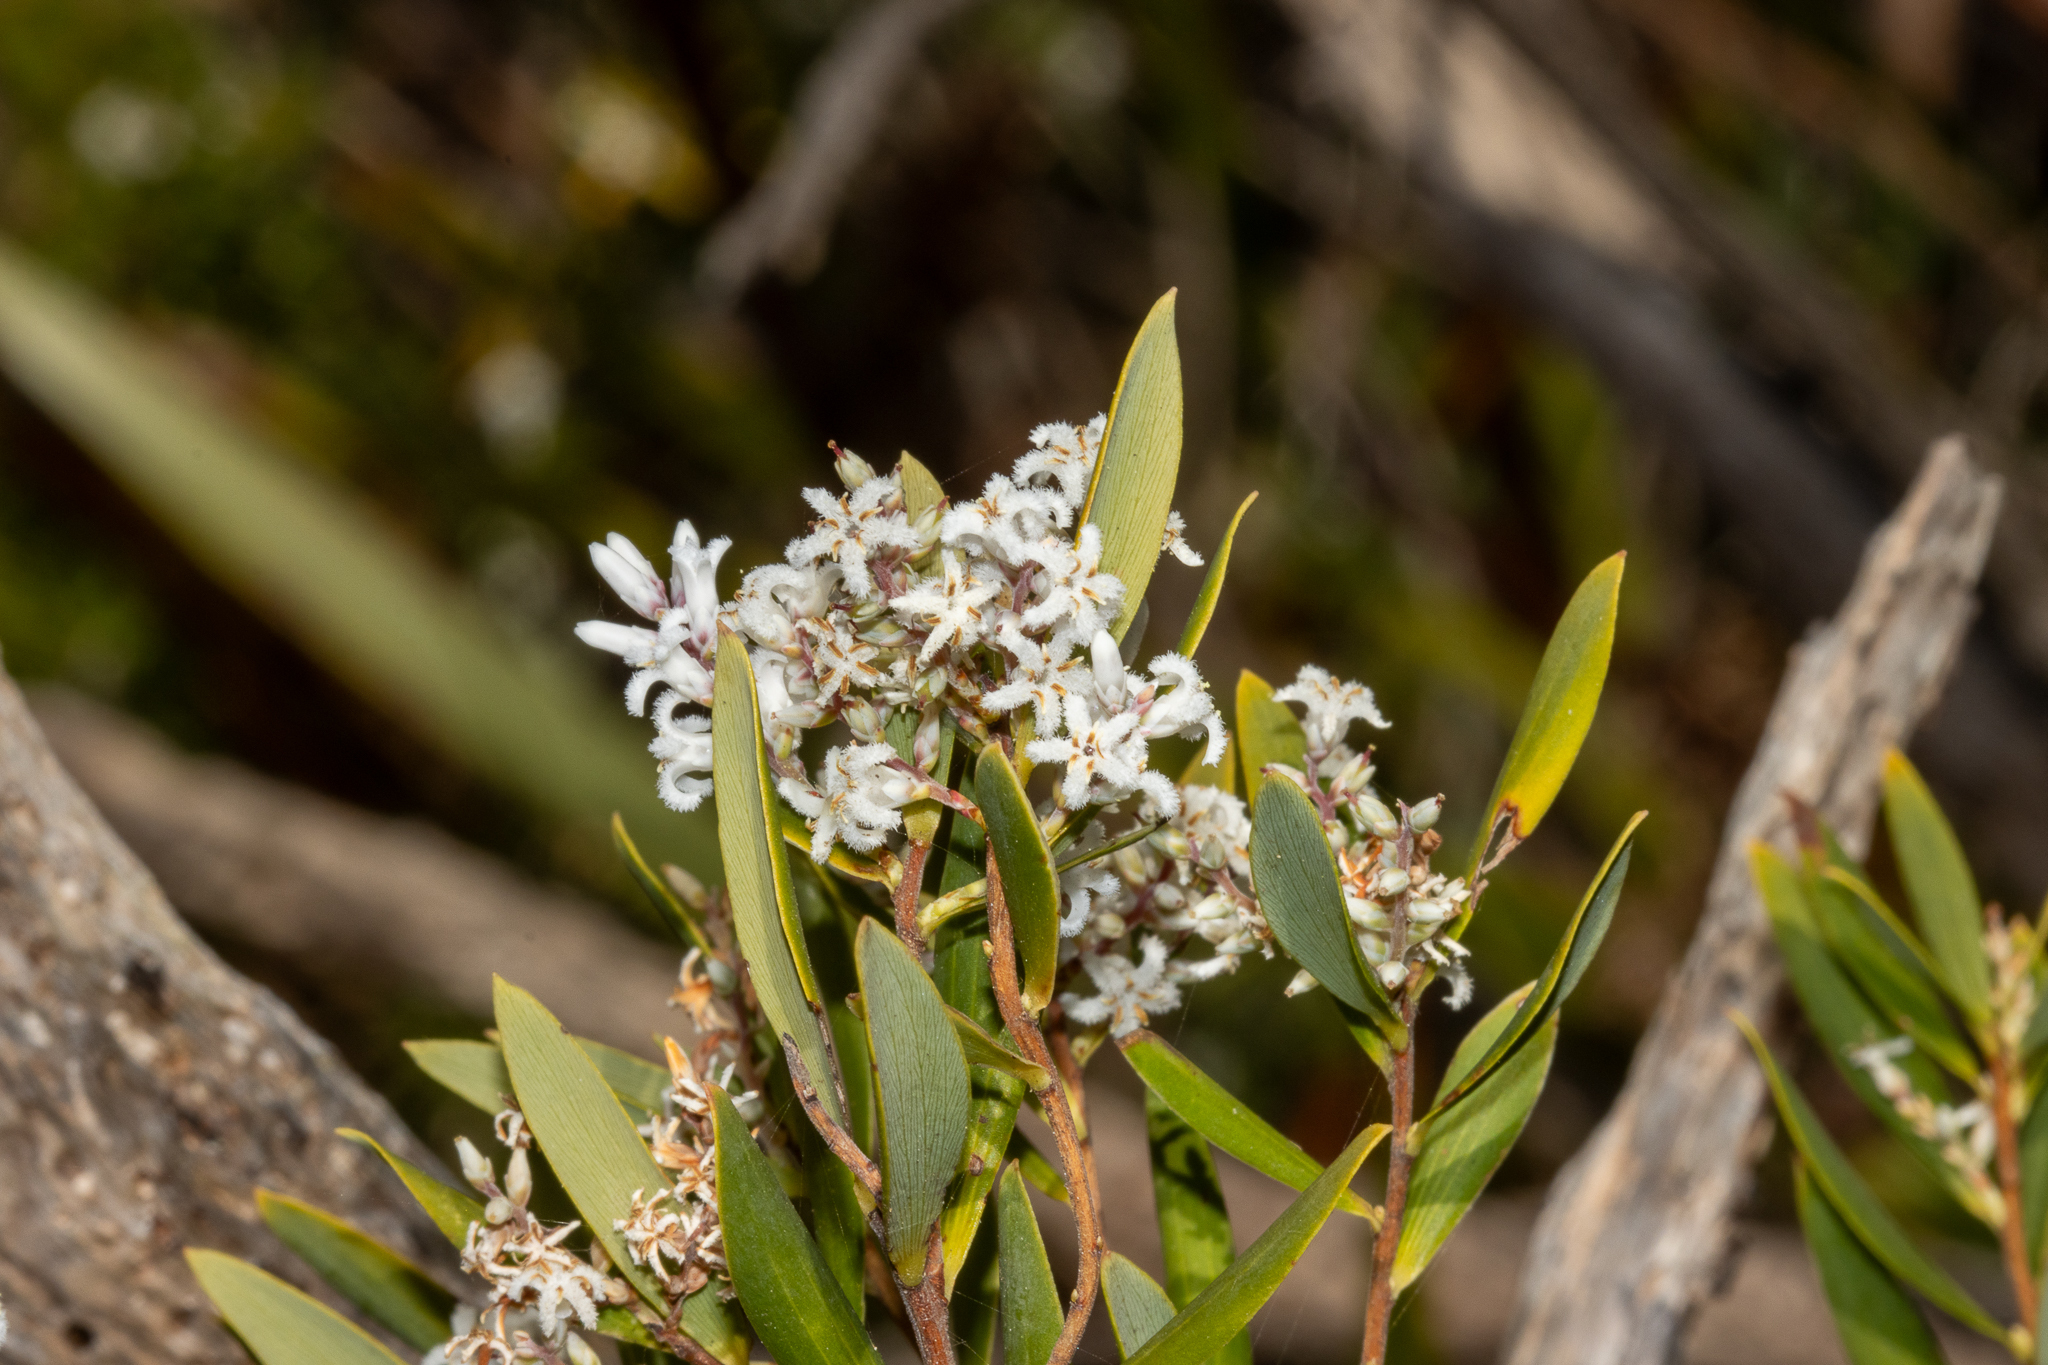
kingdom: Plantae
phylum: Tracheophyta
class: Magnoliopsida
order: Ericales
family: Ericaceae
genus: Leptecophylla
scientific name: Leptecophylla parvifolia
